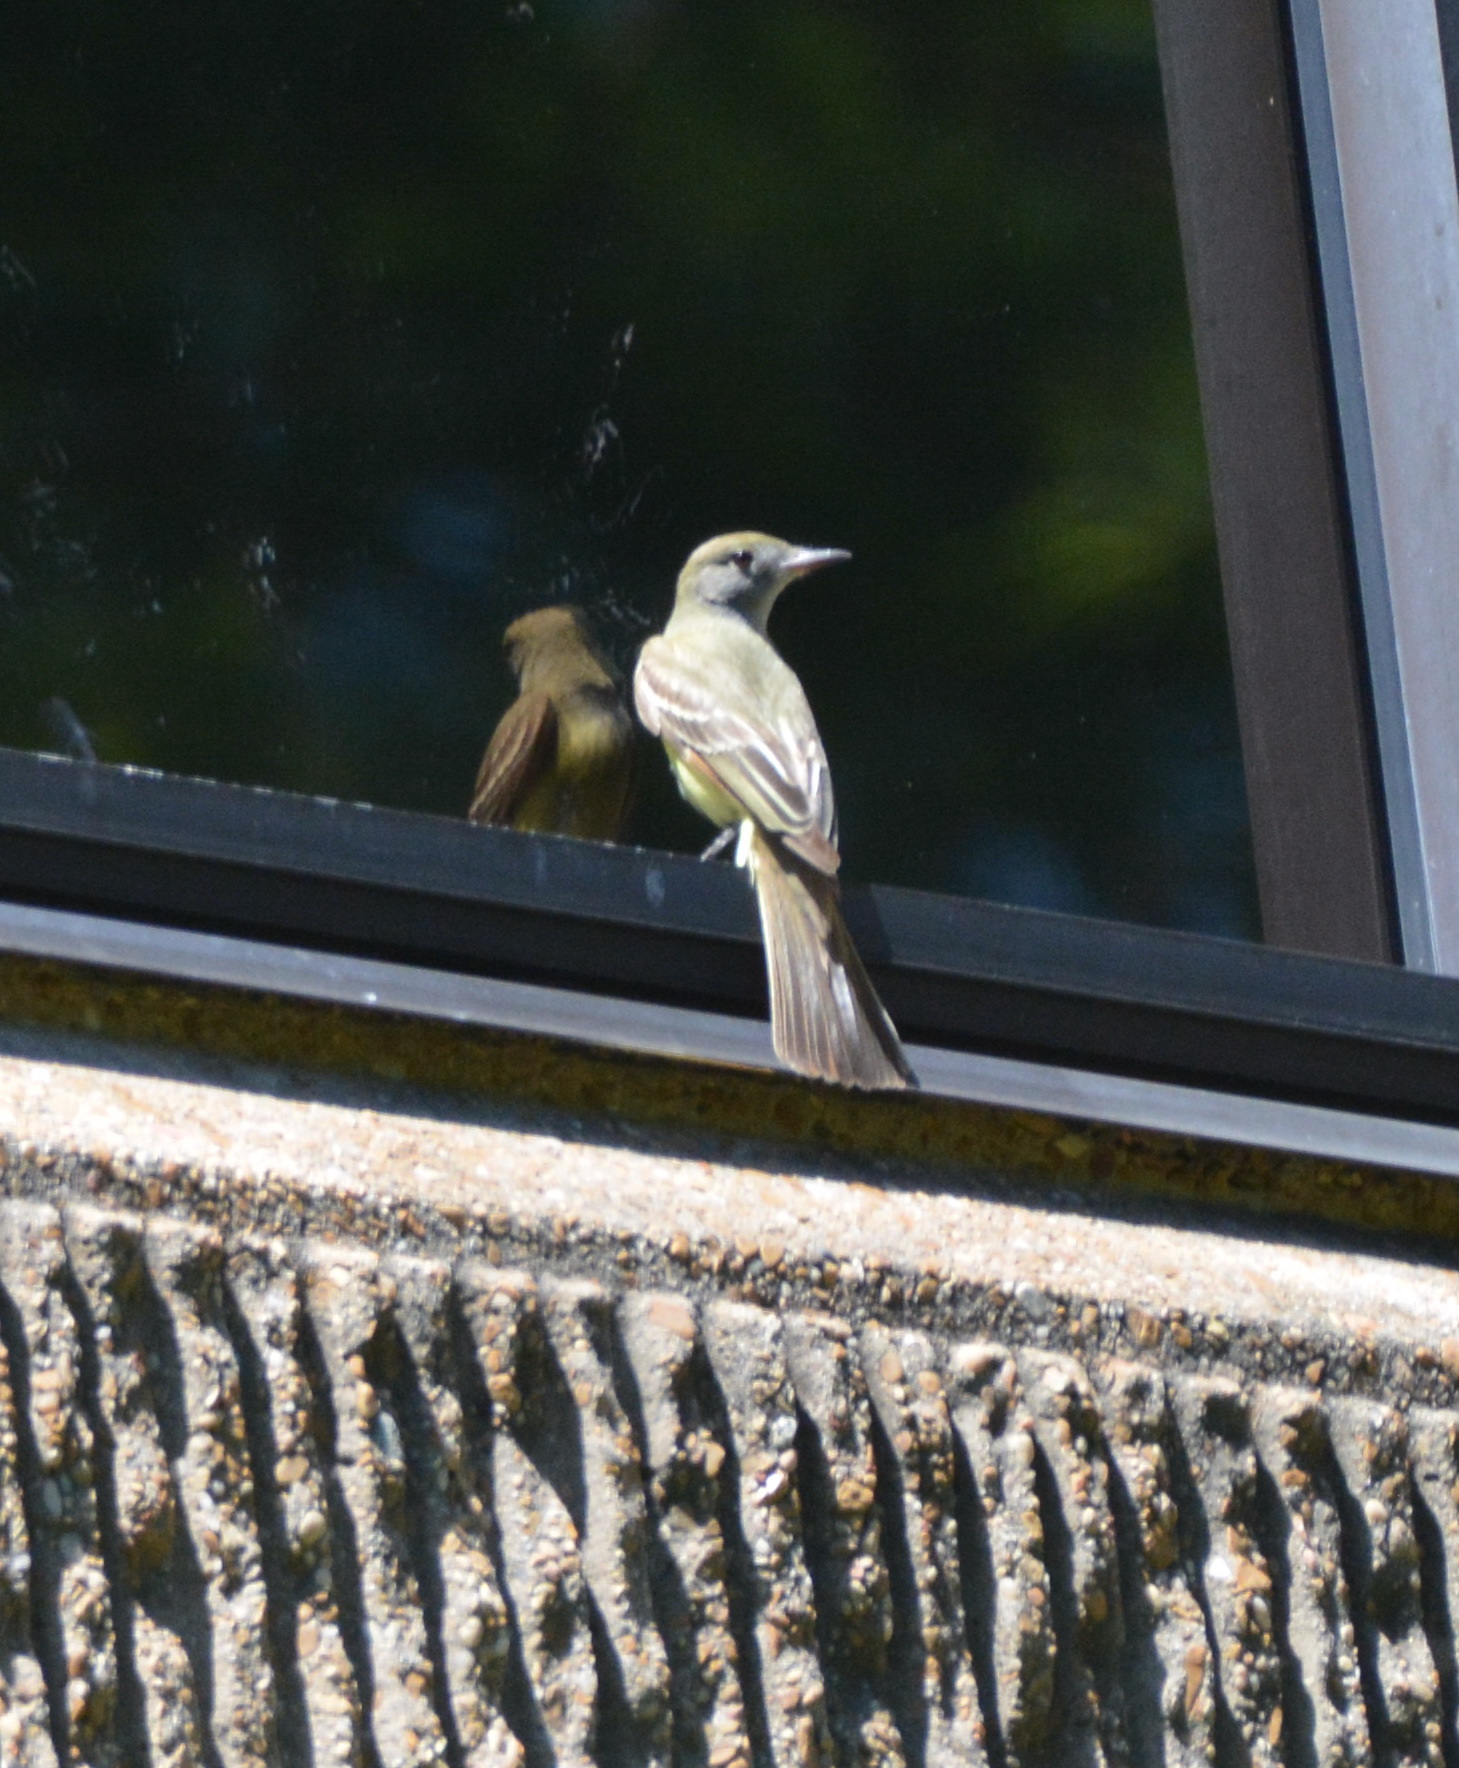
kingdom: Animalia
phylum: Chordata
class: Aves
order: Passeriformes
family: Tyrannidae
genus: Myiarchus
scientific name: Myiarchus crinitus
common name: Great crested flycatcher
